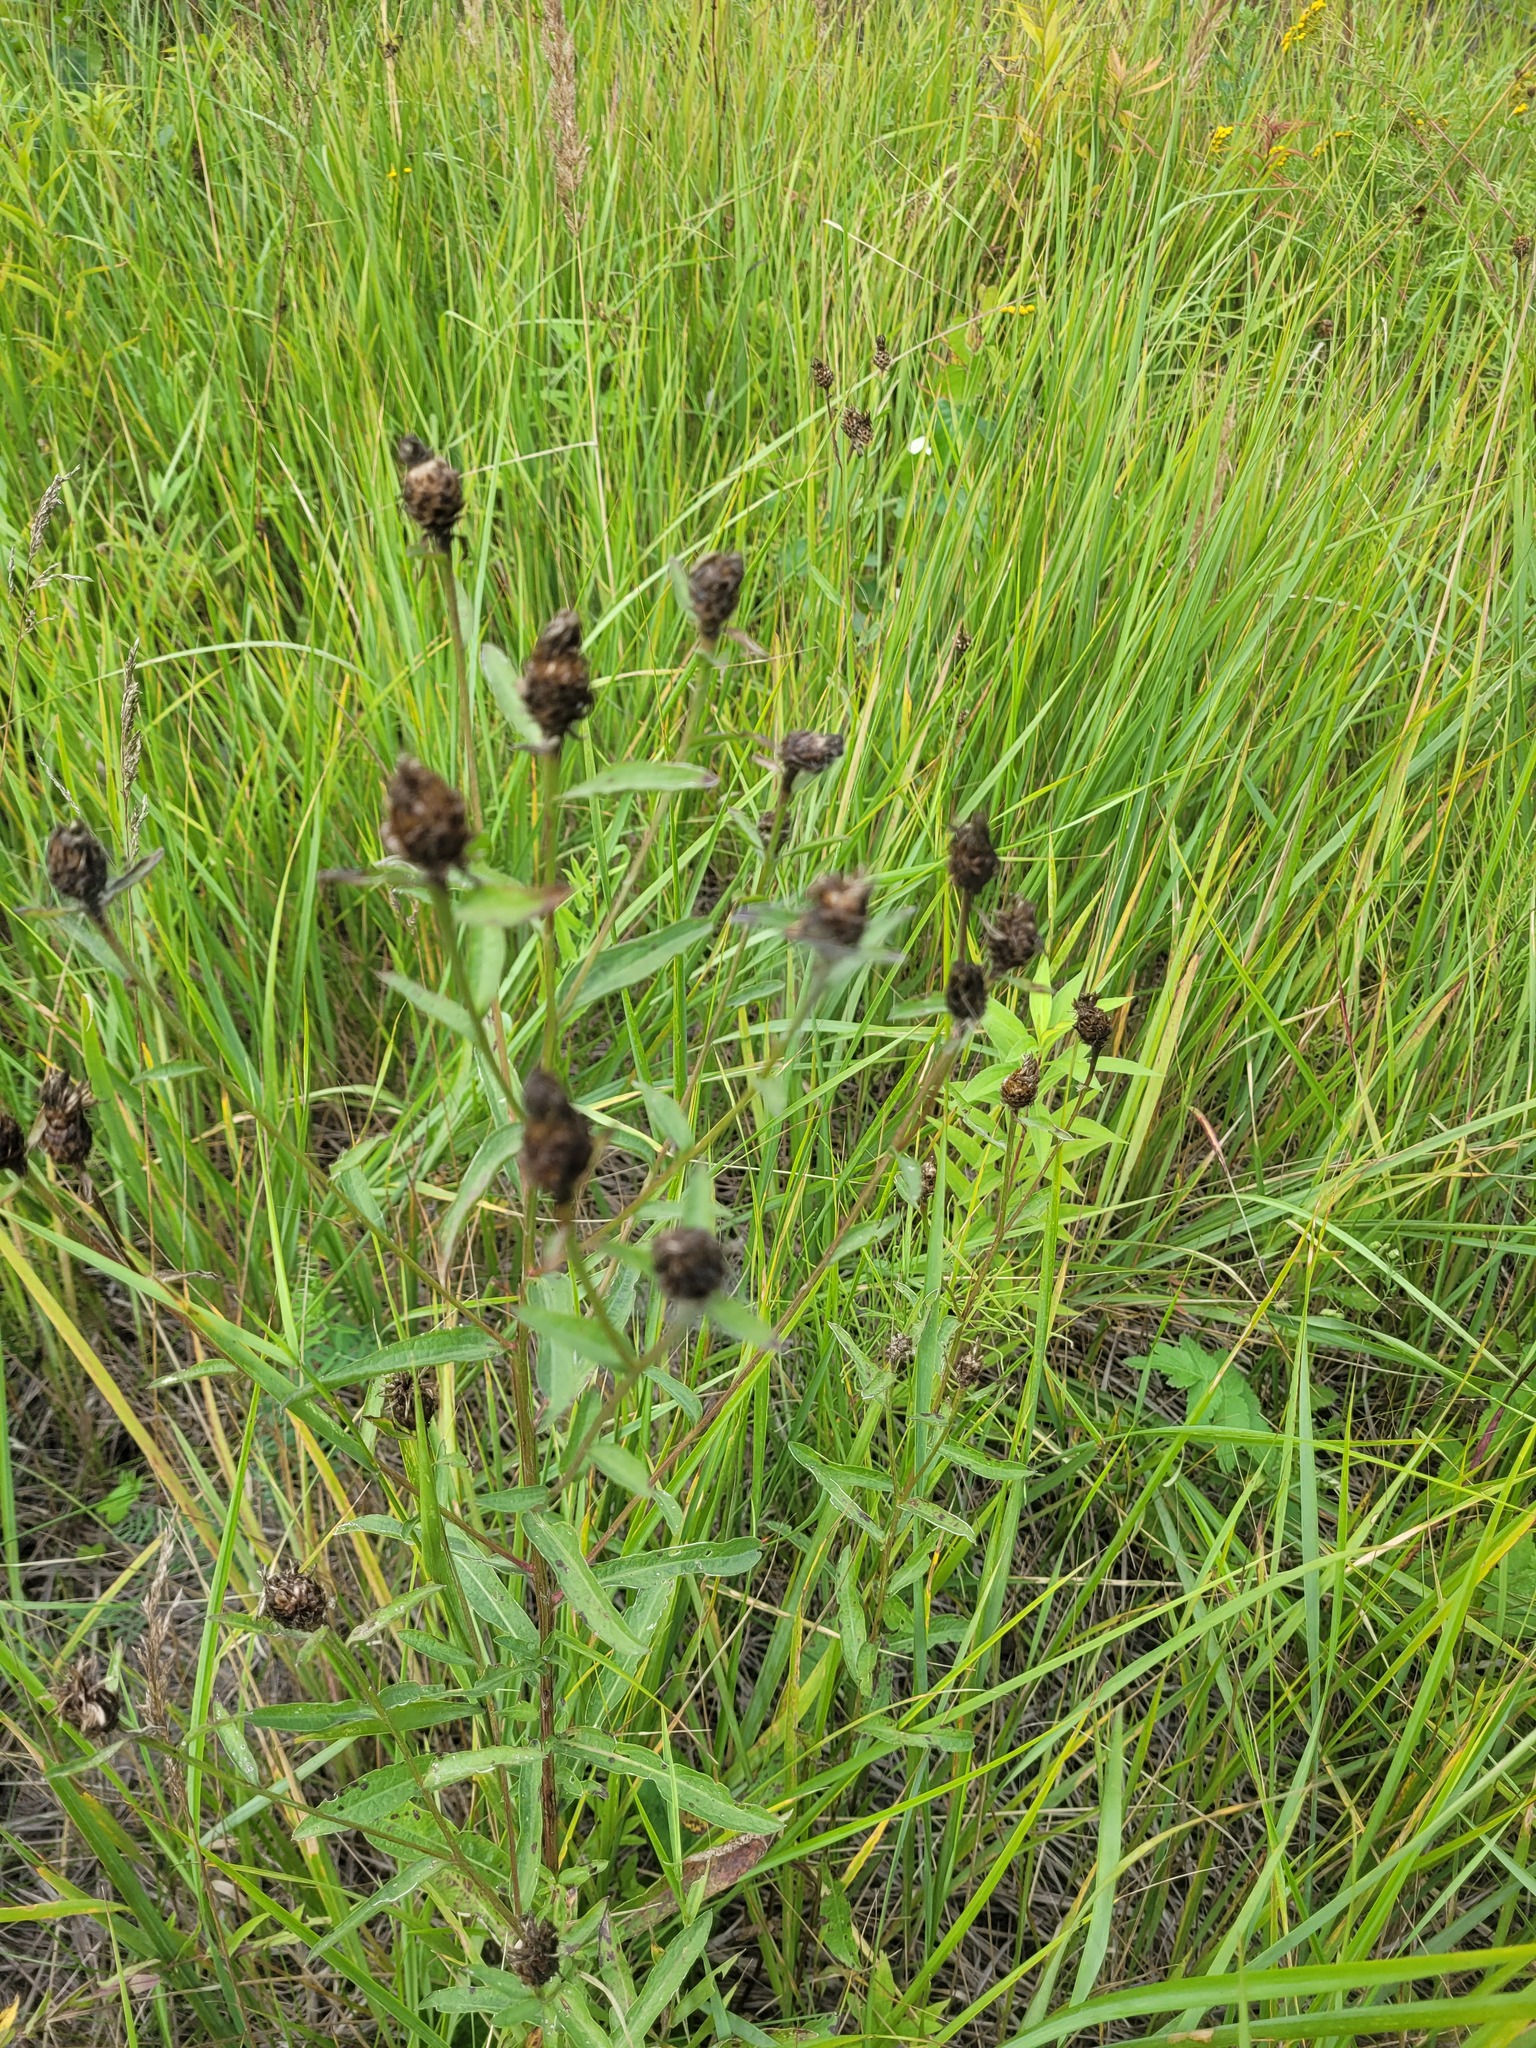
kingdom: Plantae
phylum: Tracheophyta
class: Magnoliopsida
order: Asterales
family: Asteraceae
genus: Centaurea
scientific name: Centaurea jacea
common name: Brown knapweed
